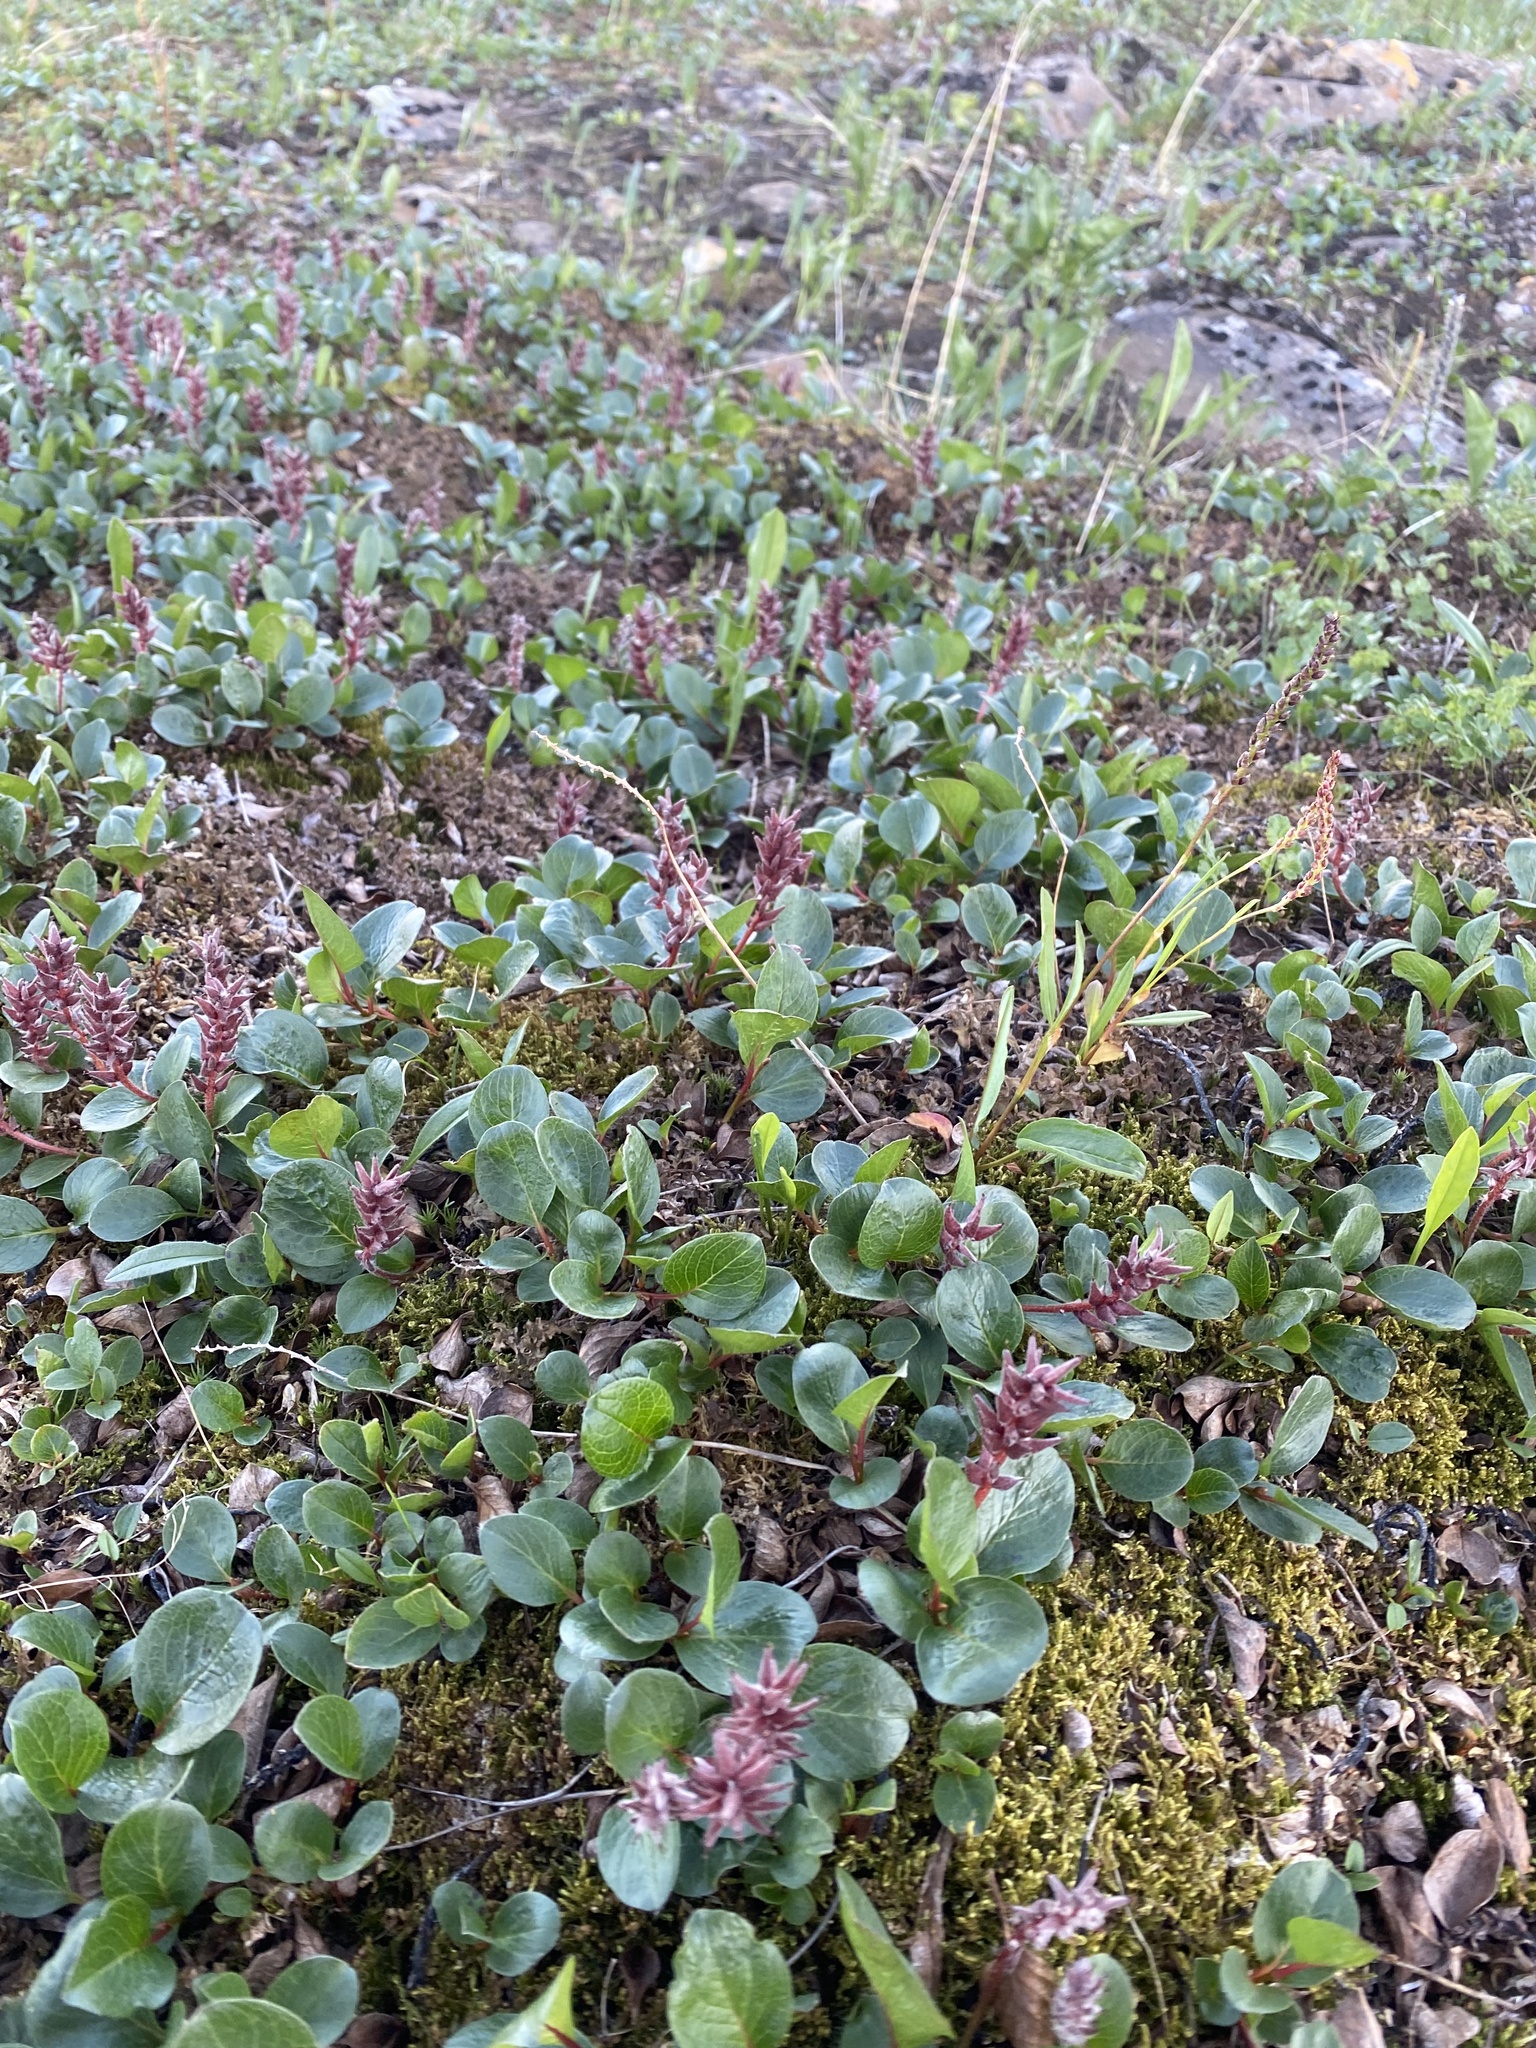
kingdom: Plantae
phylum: Tracheophyta
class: Magnoliopsida
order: Malpighiales
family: Salicaceae
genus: Salix
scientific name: Salix polaris
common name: Polar willow
